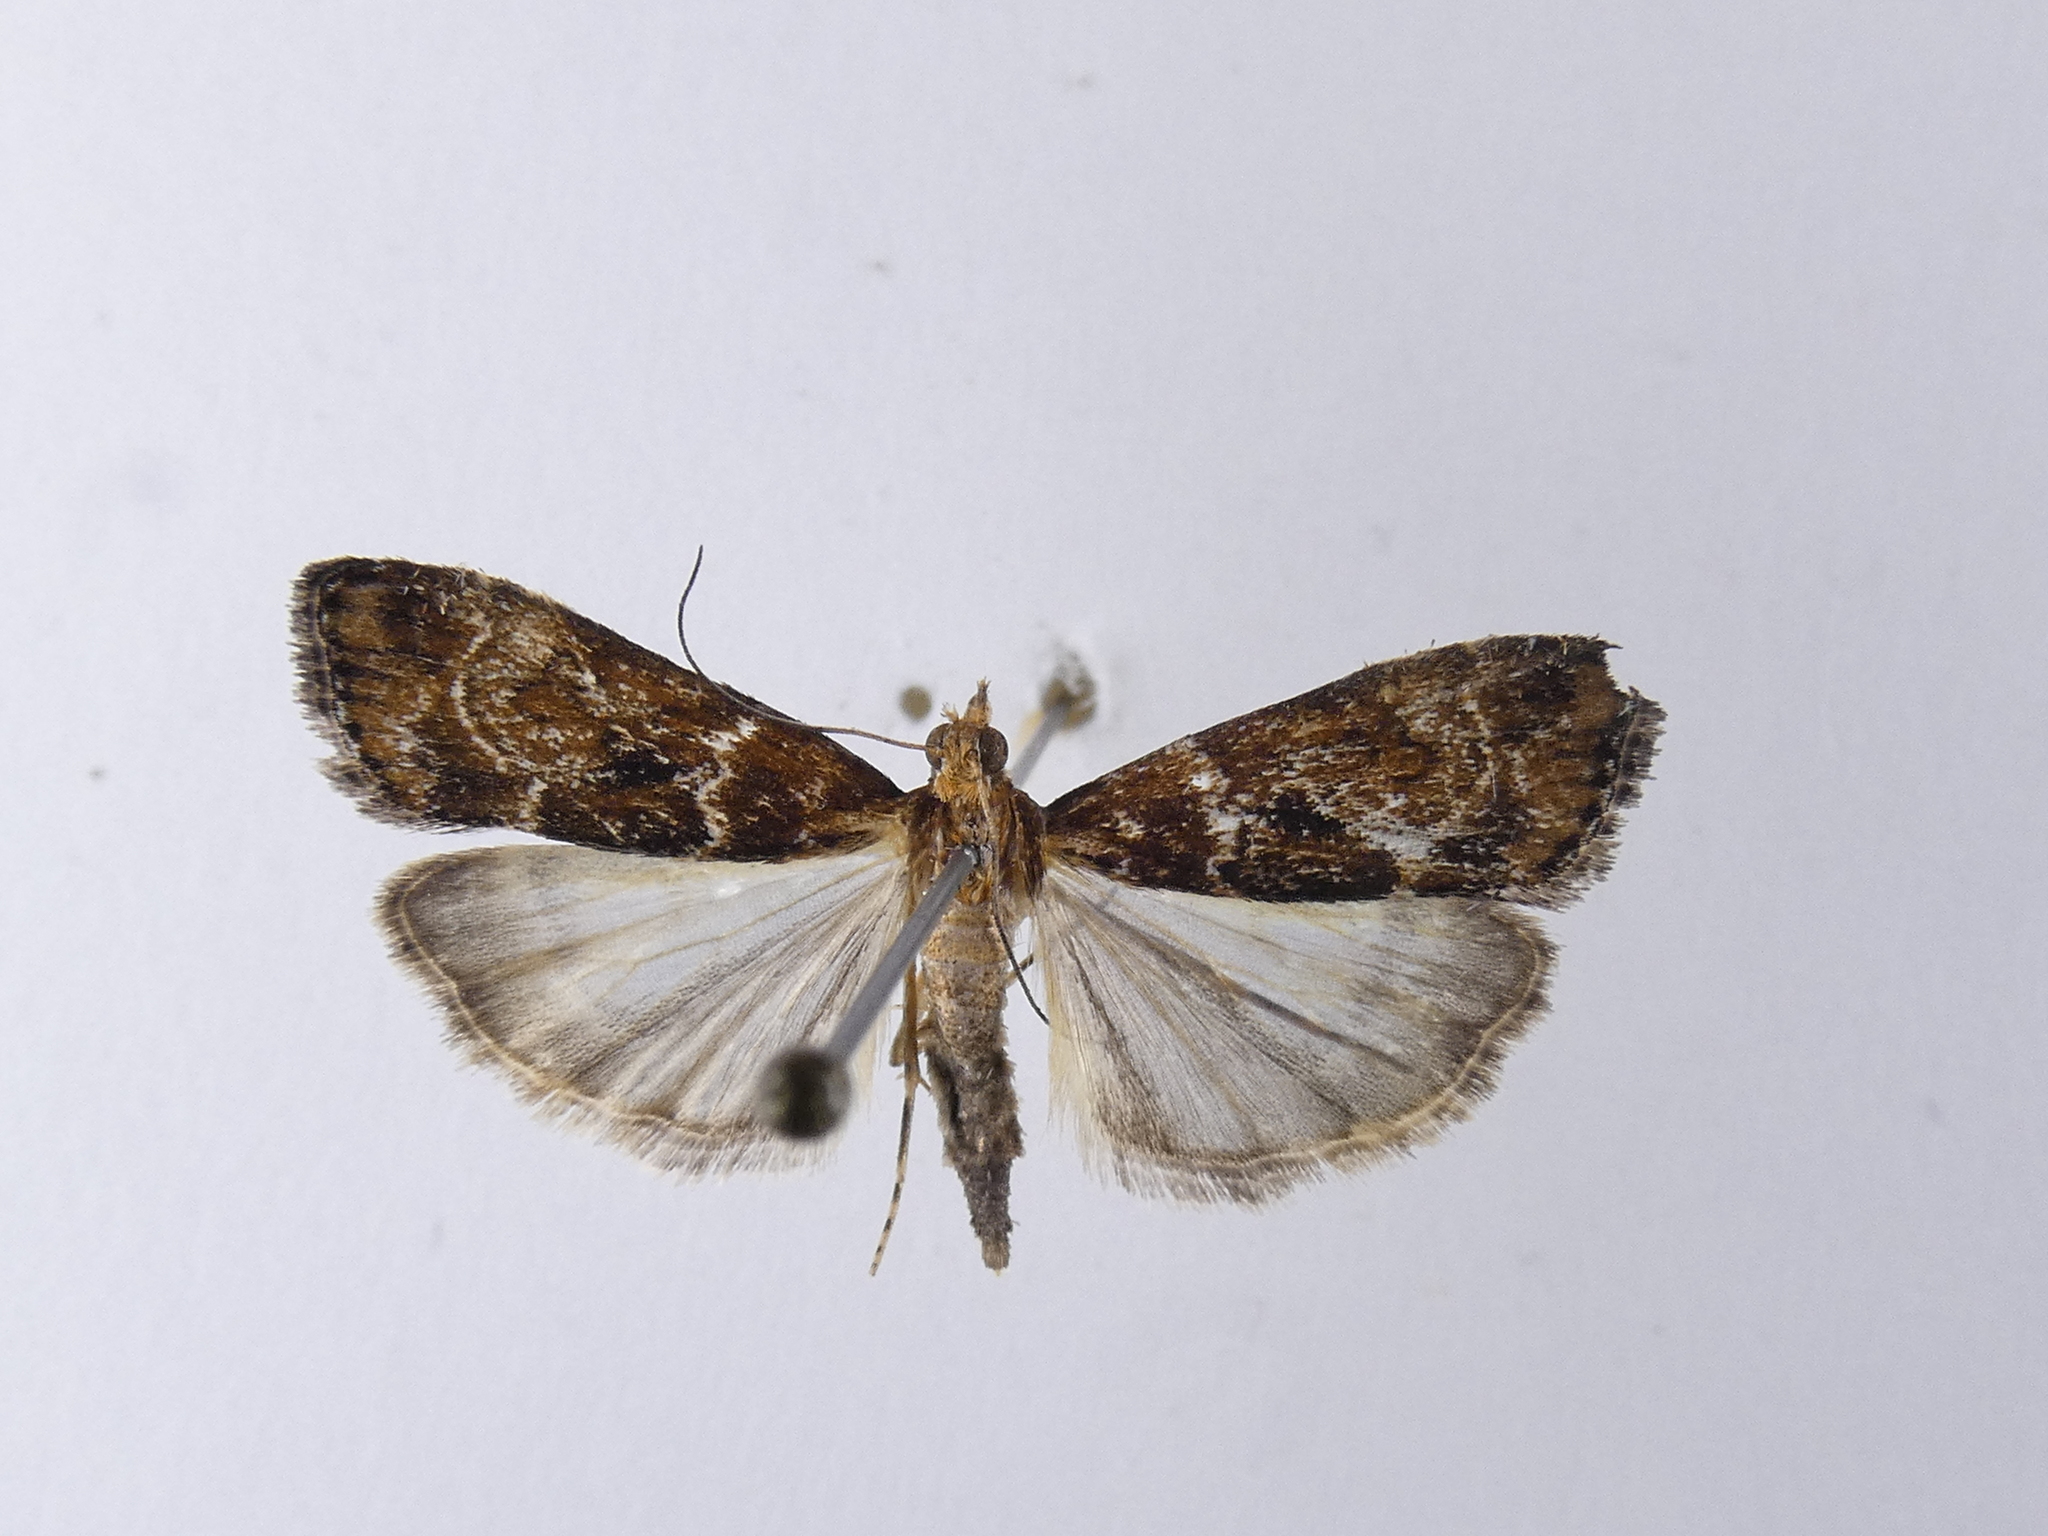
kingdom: Animalia
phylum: Arthropoda
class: Insecta
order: Lepidoptera
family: Crambidae
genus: Scoparia
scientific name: Scoparia animosa
